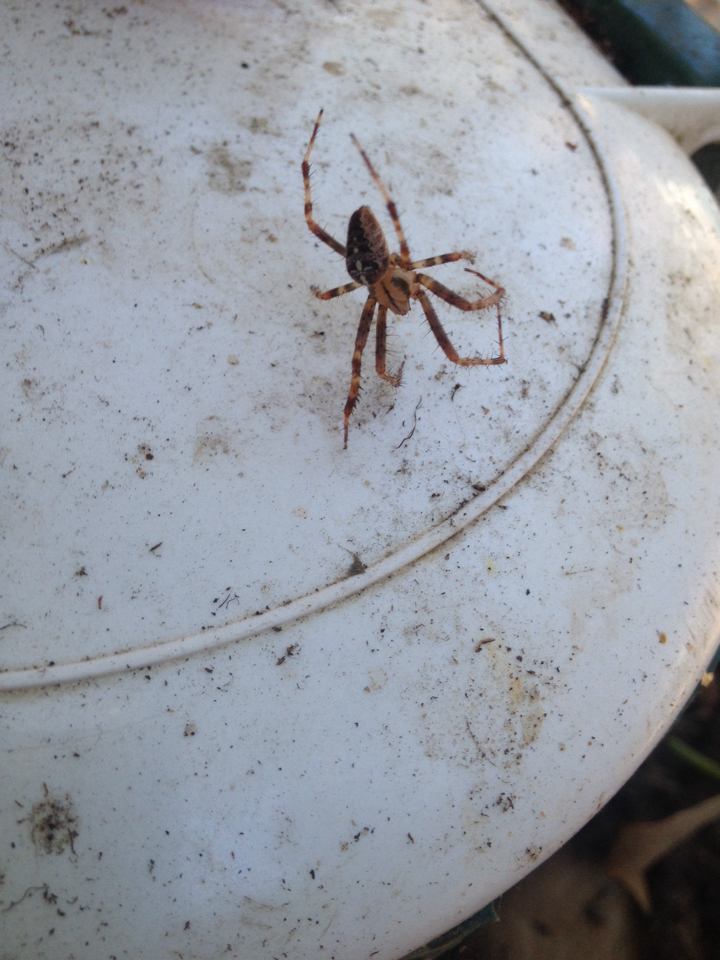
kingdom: Animalia
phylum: Arthropoda
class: Arachnida
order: Araneae
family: Araneidae
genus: Araneus
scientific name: Araneus diadematus
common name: Cross orbweaver
